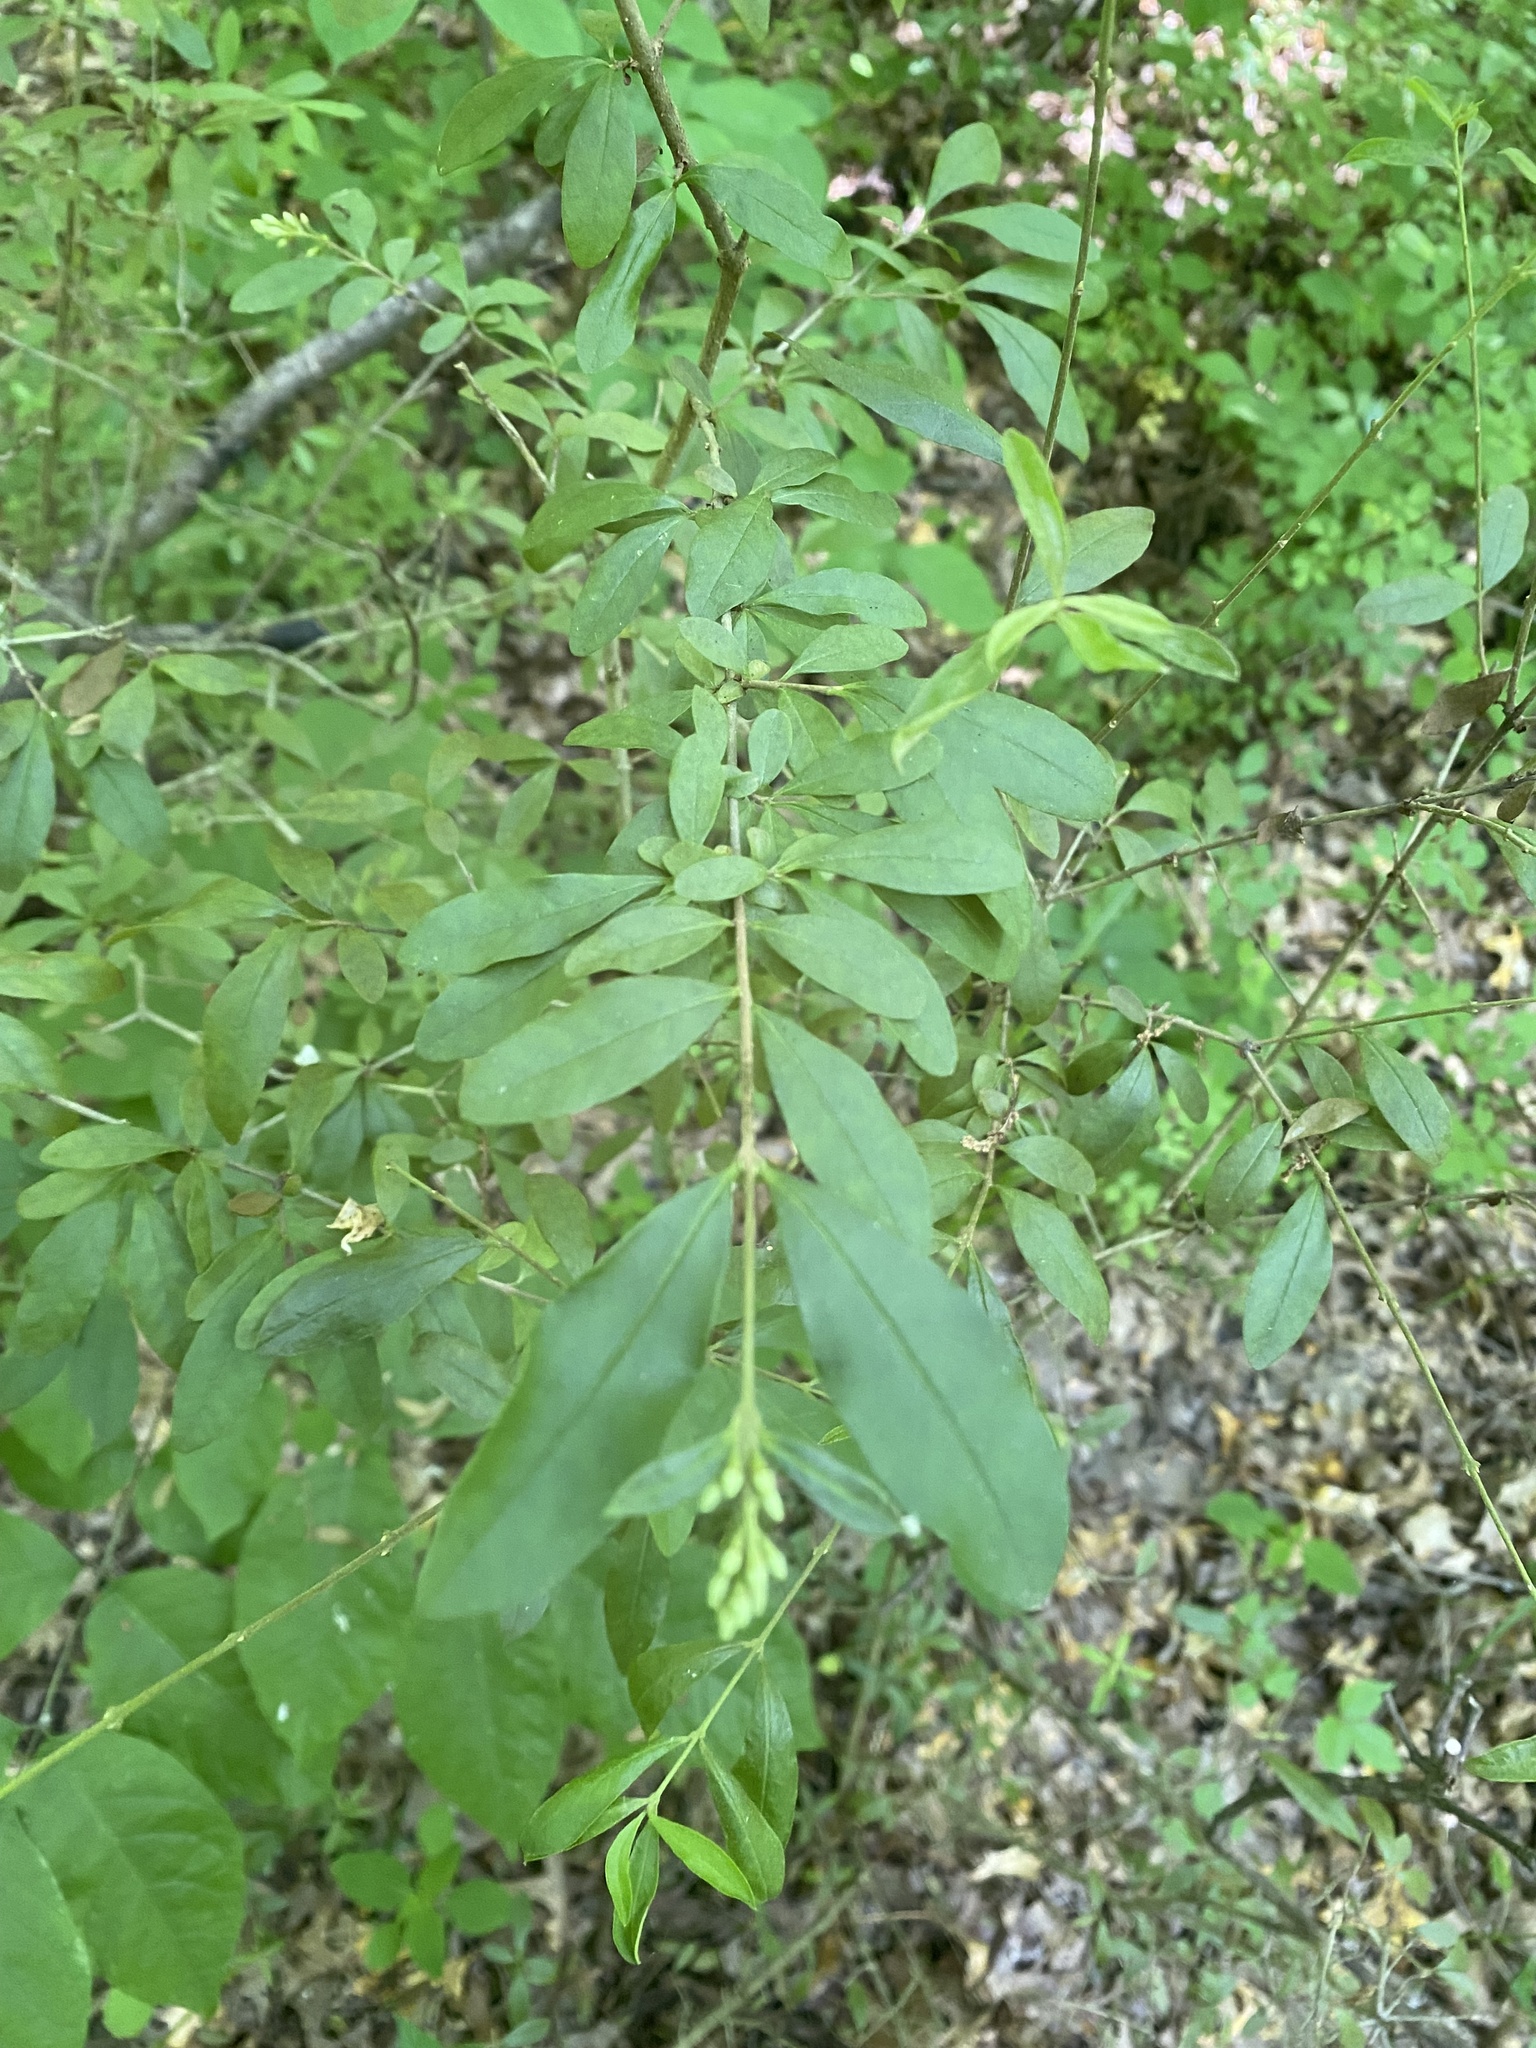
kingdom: Plantae
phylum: Tracheophyta
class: Magnoliopsida
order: Lamiales
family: Oleaceae
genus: Ligustrum
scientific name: Ligustrum obtusifolium
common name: Border privet
